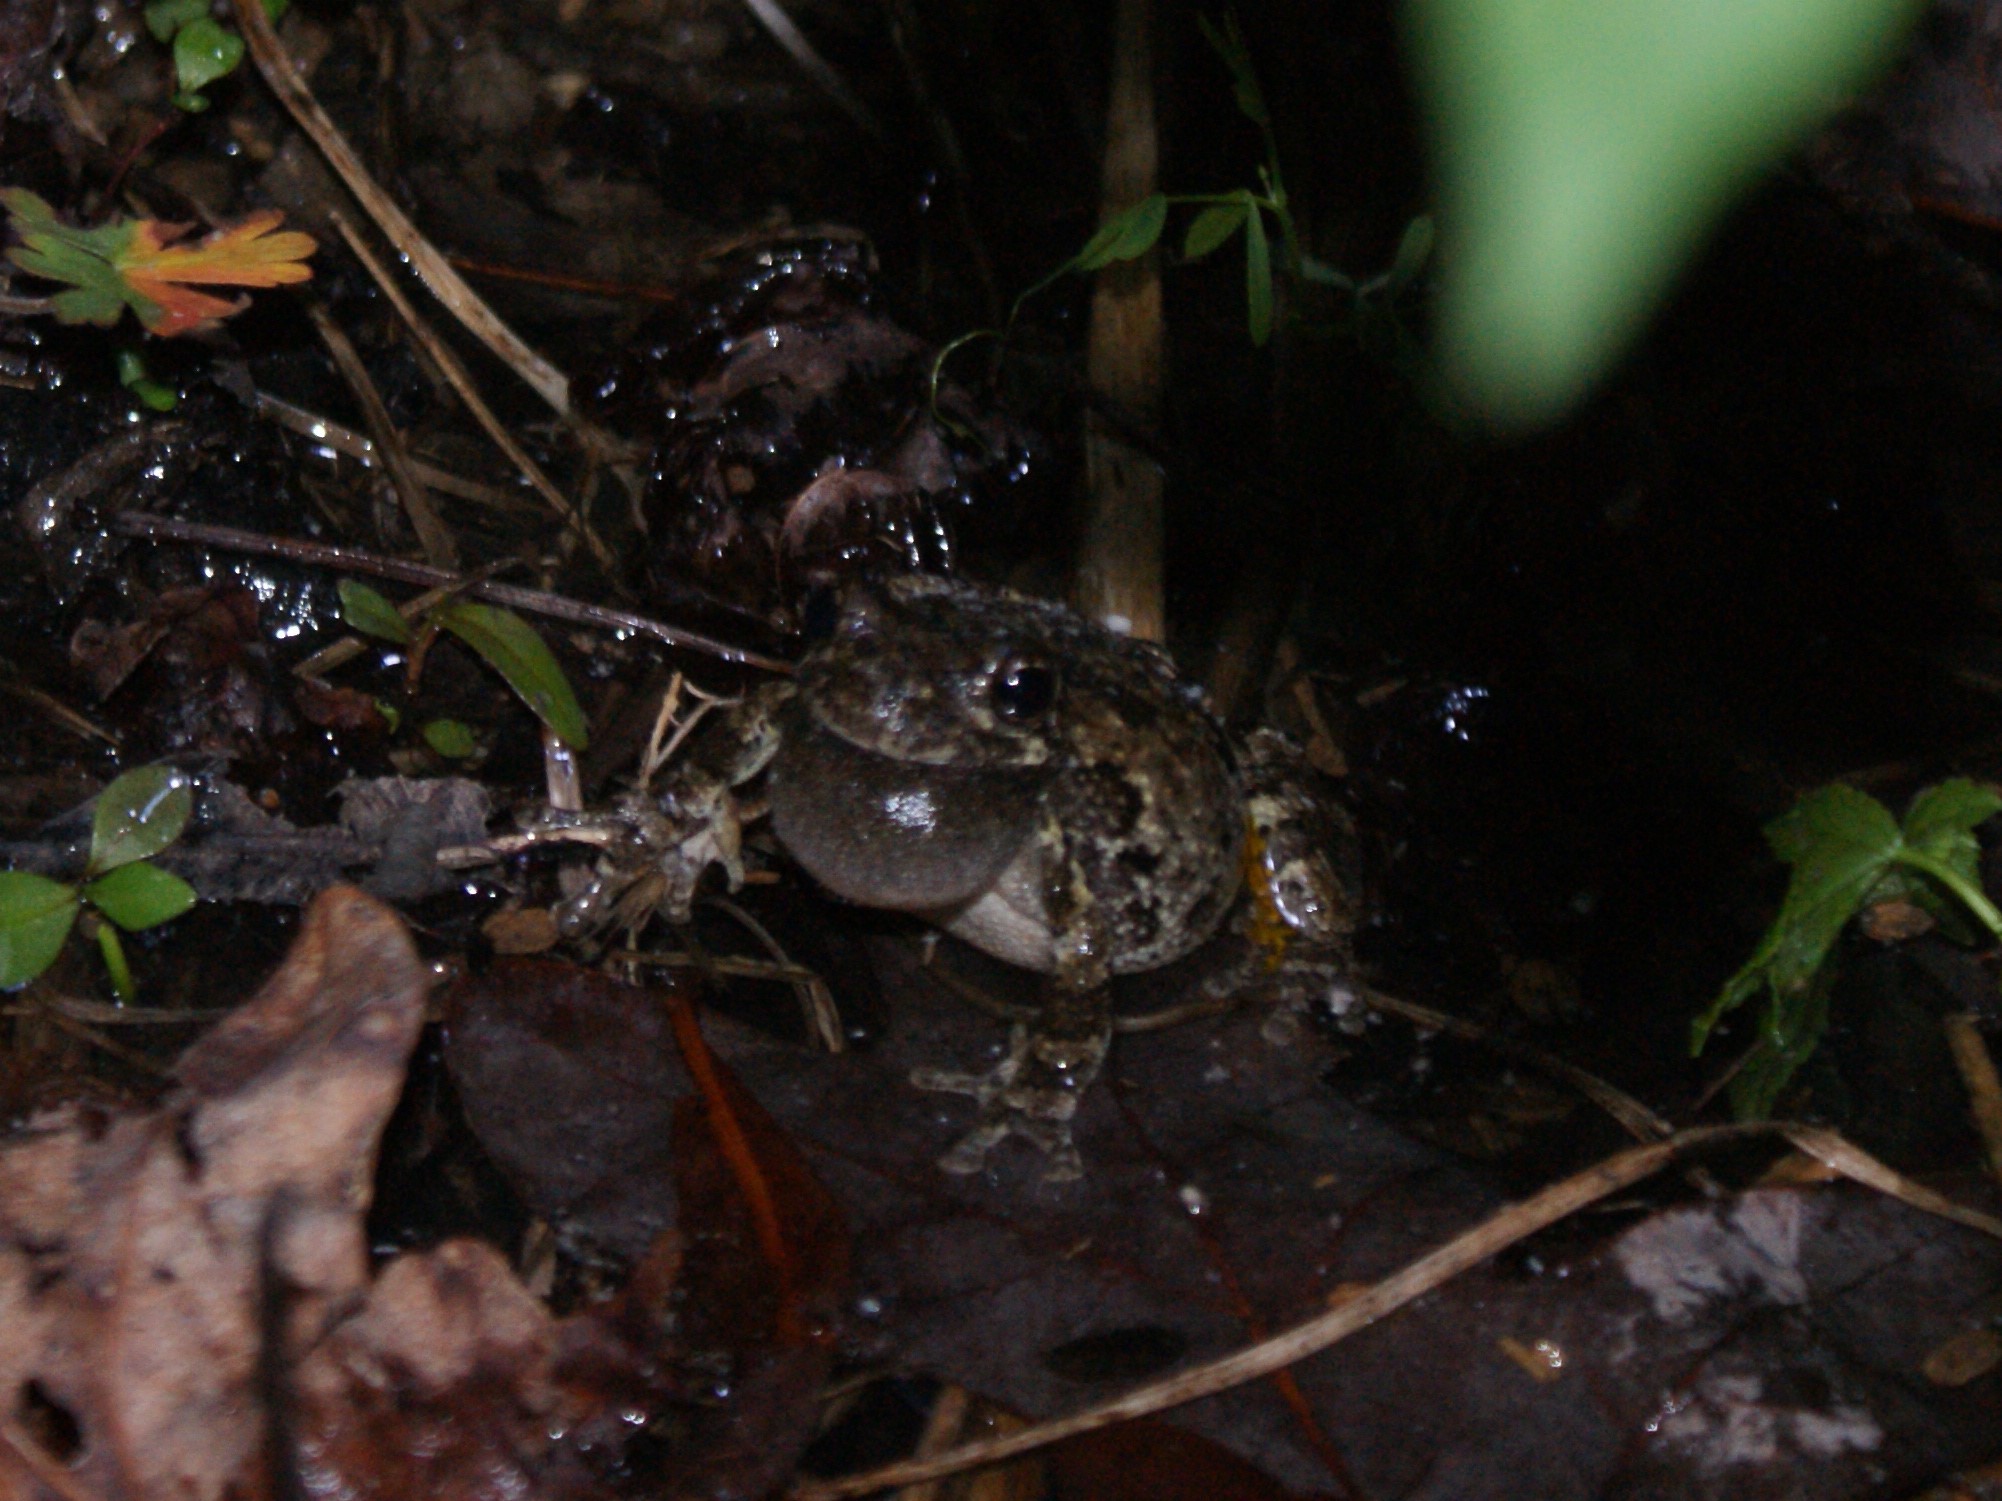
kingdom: Animalia
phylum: Chordata
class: Amphibia
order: Anura
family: Hylidae
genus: Dryophytes
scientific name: Dryophytes chrysoscelis
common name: Cope's gray treefrog
